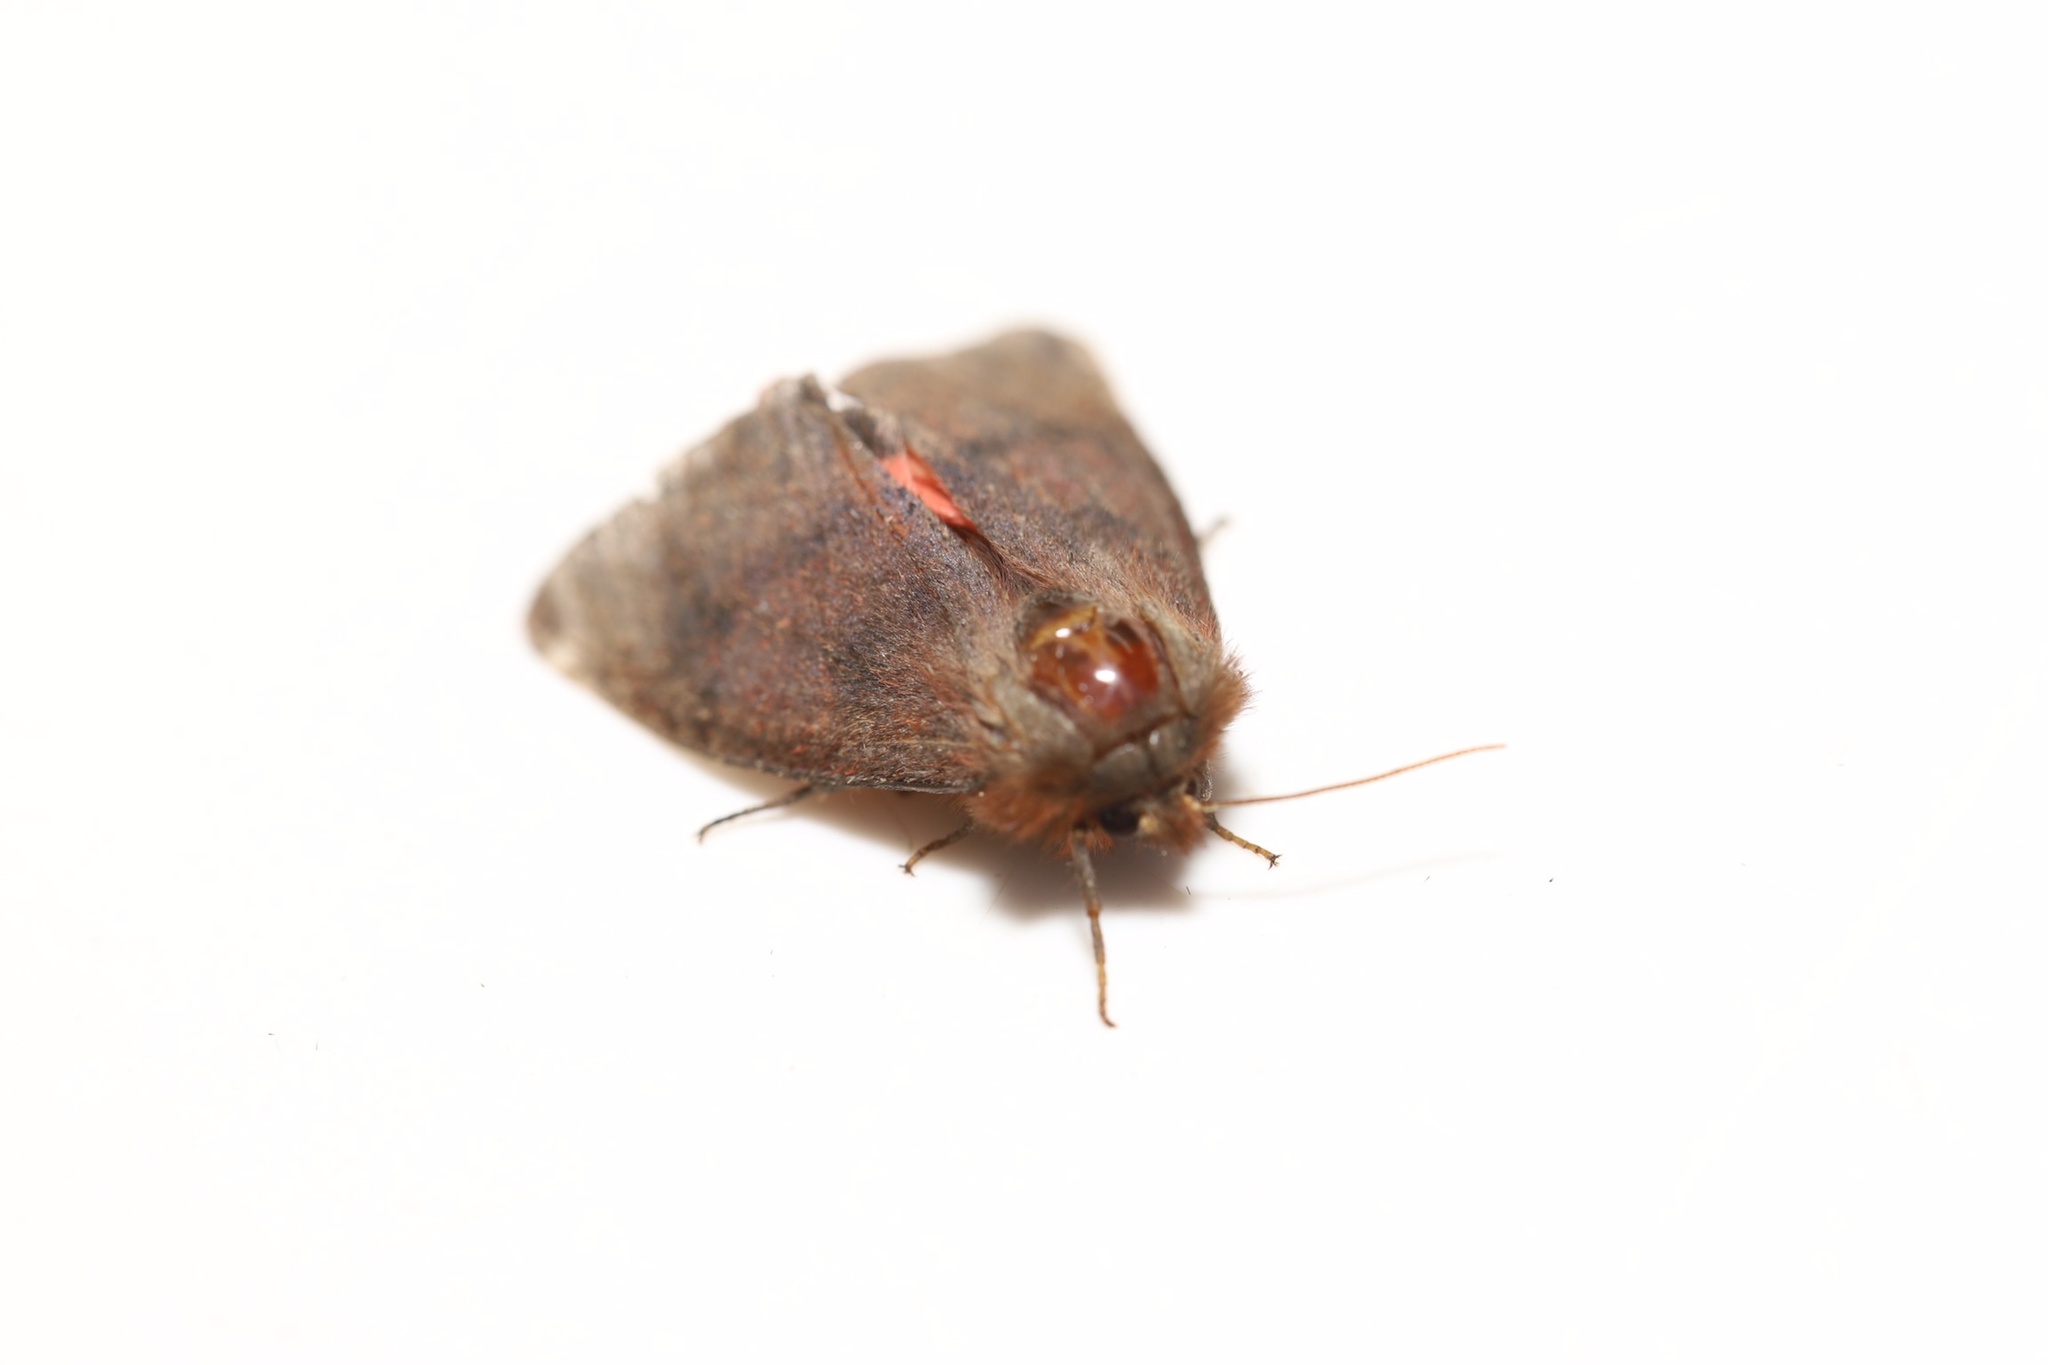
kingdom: Animalia
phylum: Arthropoda
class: Insecta
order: Lepidoptera
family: Erebidae
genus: Phragmatobia
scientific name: Phragmatobia assimilans
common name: Large ruby tiger moth
